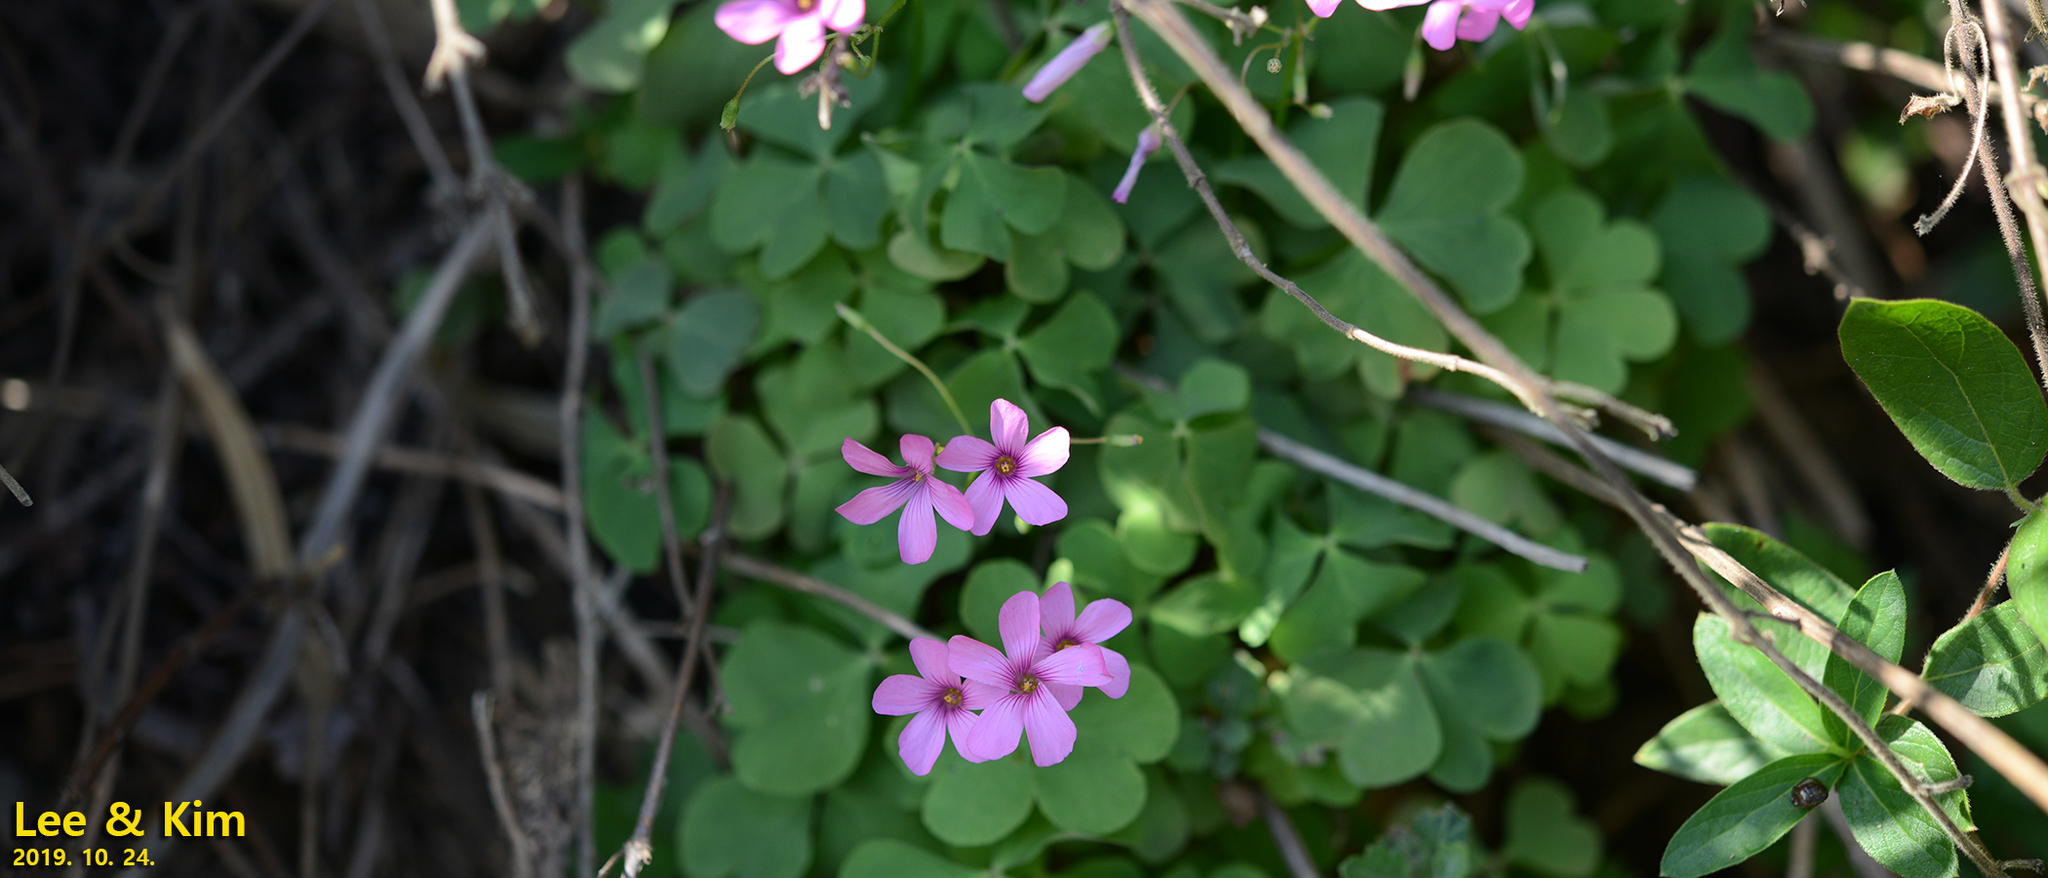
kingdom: Plantae
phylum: Tracheophyta
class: Magnoliopsida
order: Oxalidales
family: Oxalidaceae
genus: Oxalis
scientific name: Oxalis articulata
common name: Pink-sorrel
